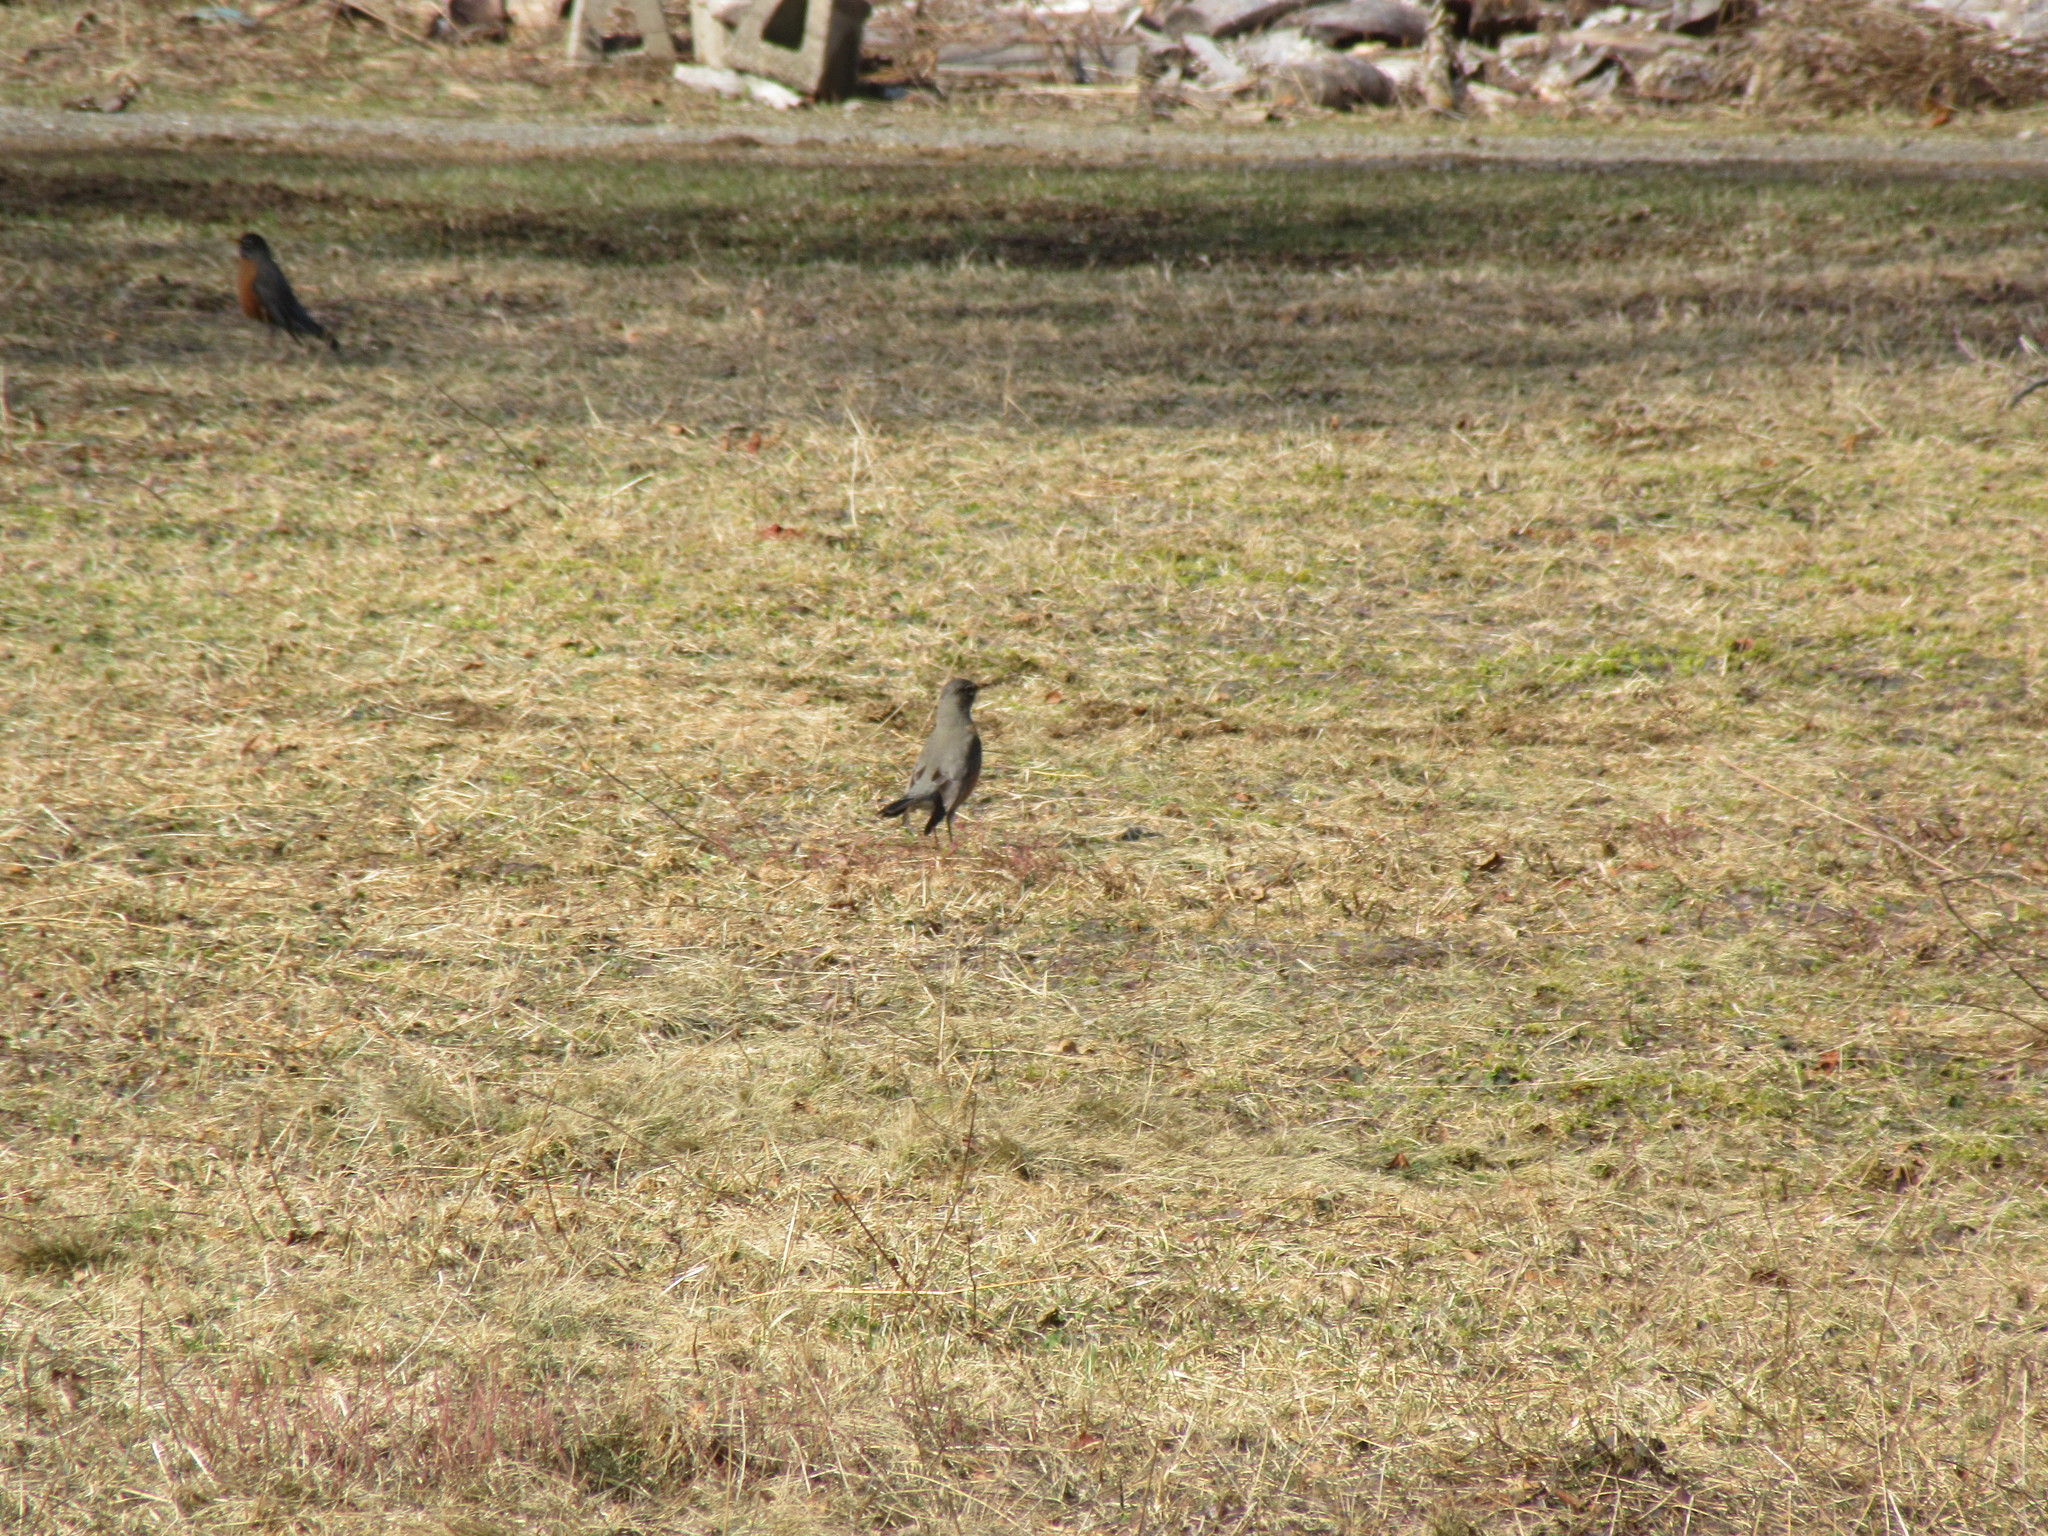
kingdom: Animalia
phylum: Chordata
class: Aves
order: Passeriformes
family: Turdidae
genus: Turdus
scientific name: Turdus migratorius
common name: American robin
